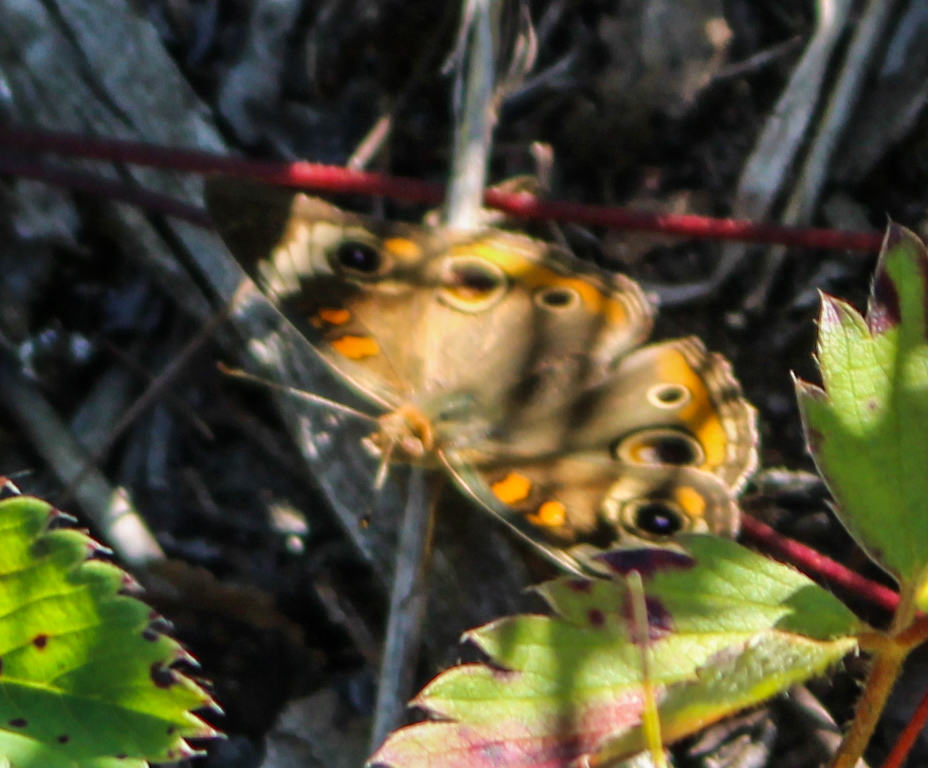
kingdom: Animalia
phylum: Arthropoda
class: Insecta
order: Lepidoptera
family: Nymphalidae
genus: Junonia
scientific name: Junonia coenia
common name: Common buckeye
